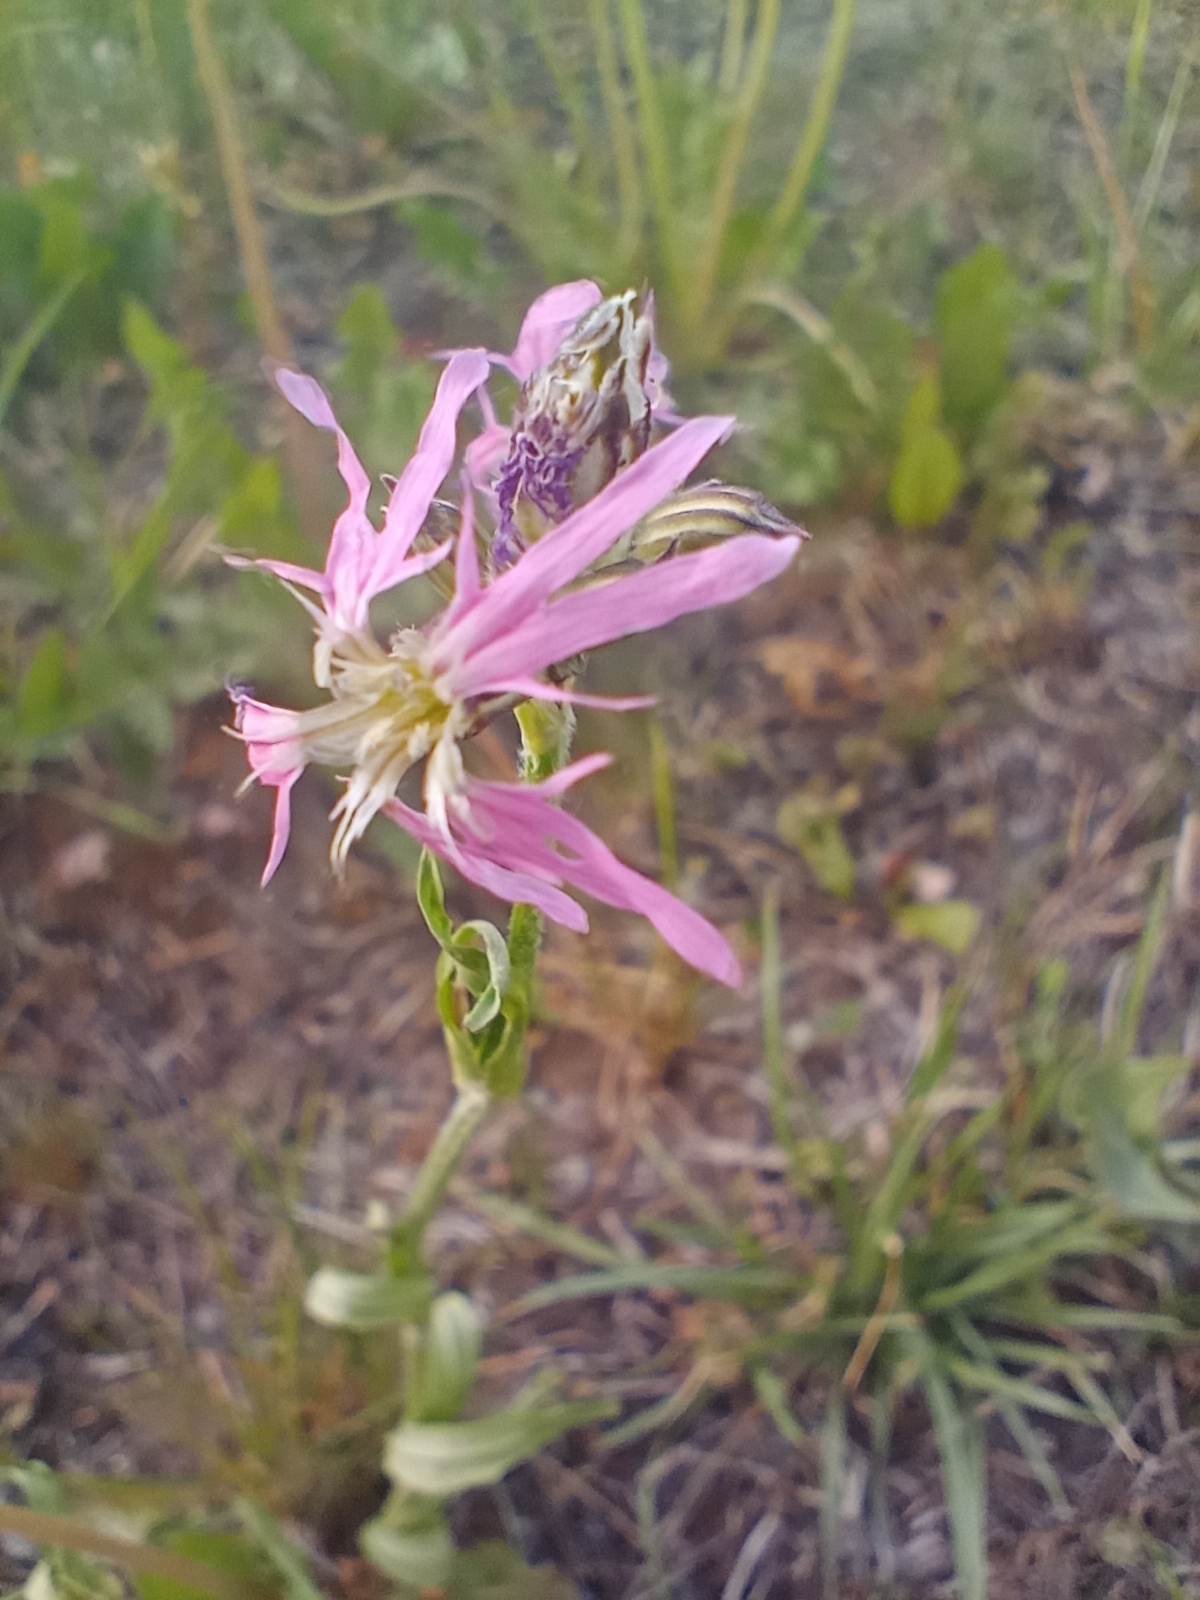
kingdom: Plantae
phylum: Tracheophyta
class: Magnoliopsida
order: Caryophyllales
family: Caryophyllaceae
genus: Silene
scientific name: Silene flos-cuculi
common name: Ragged-robin
